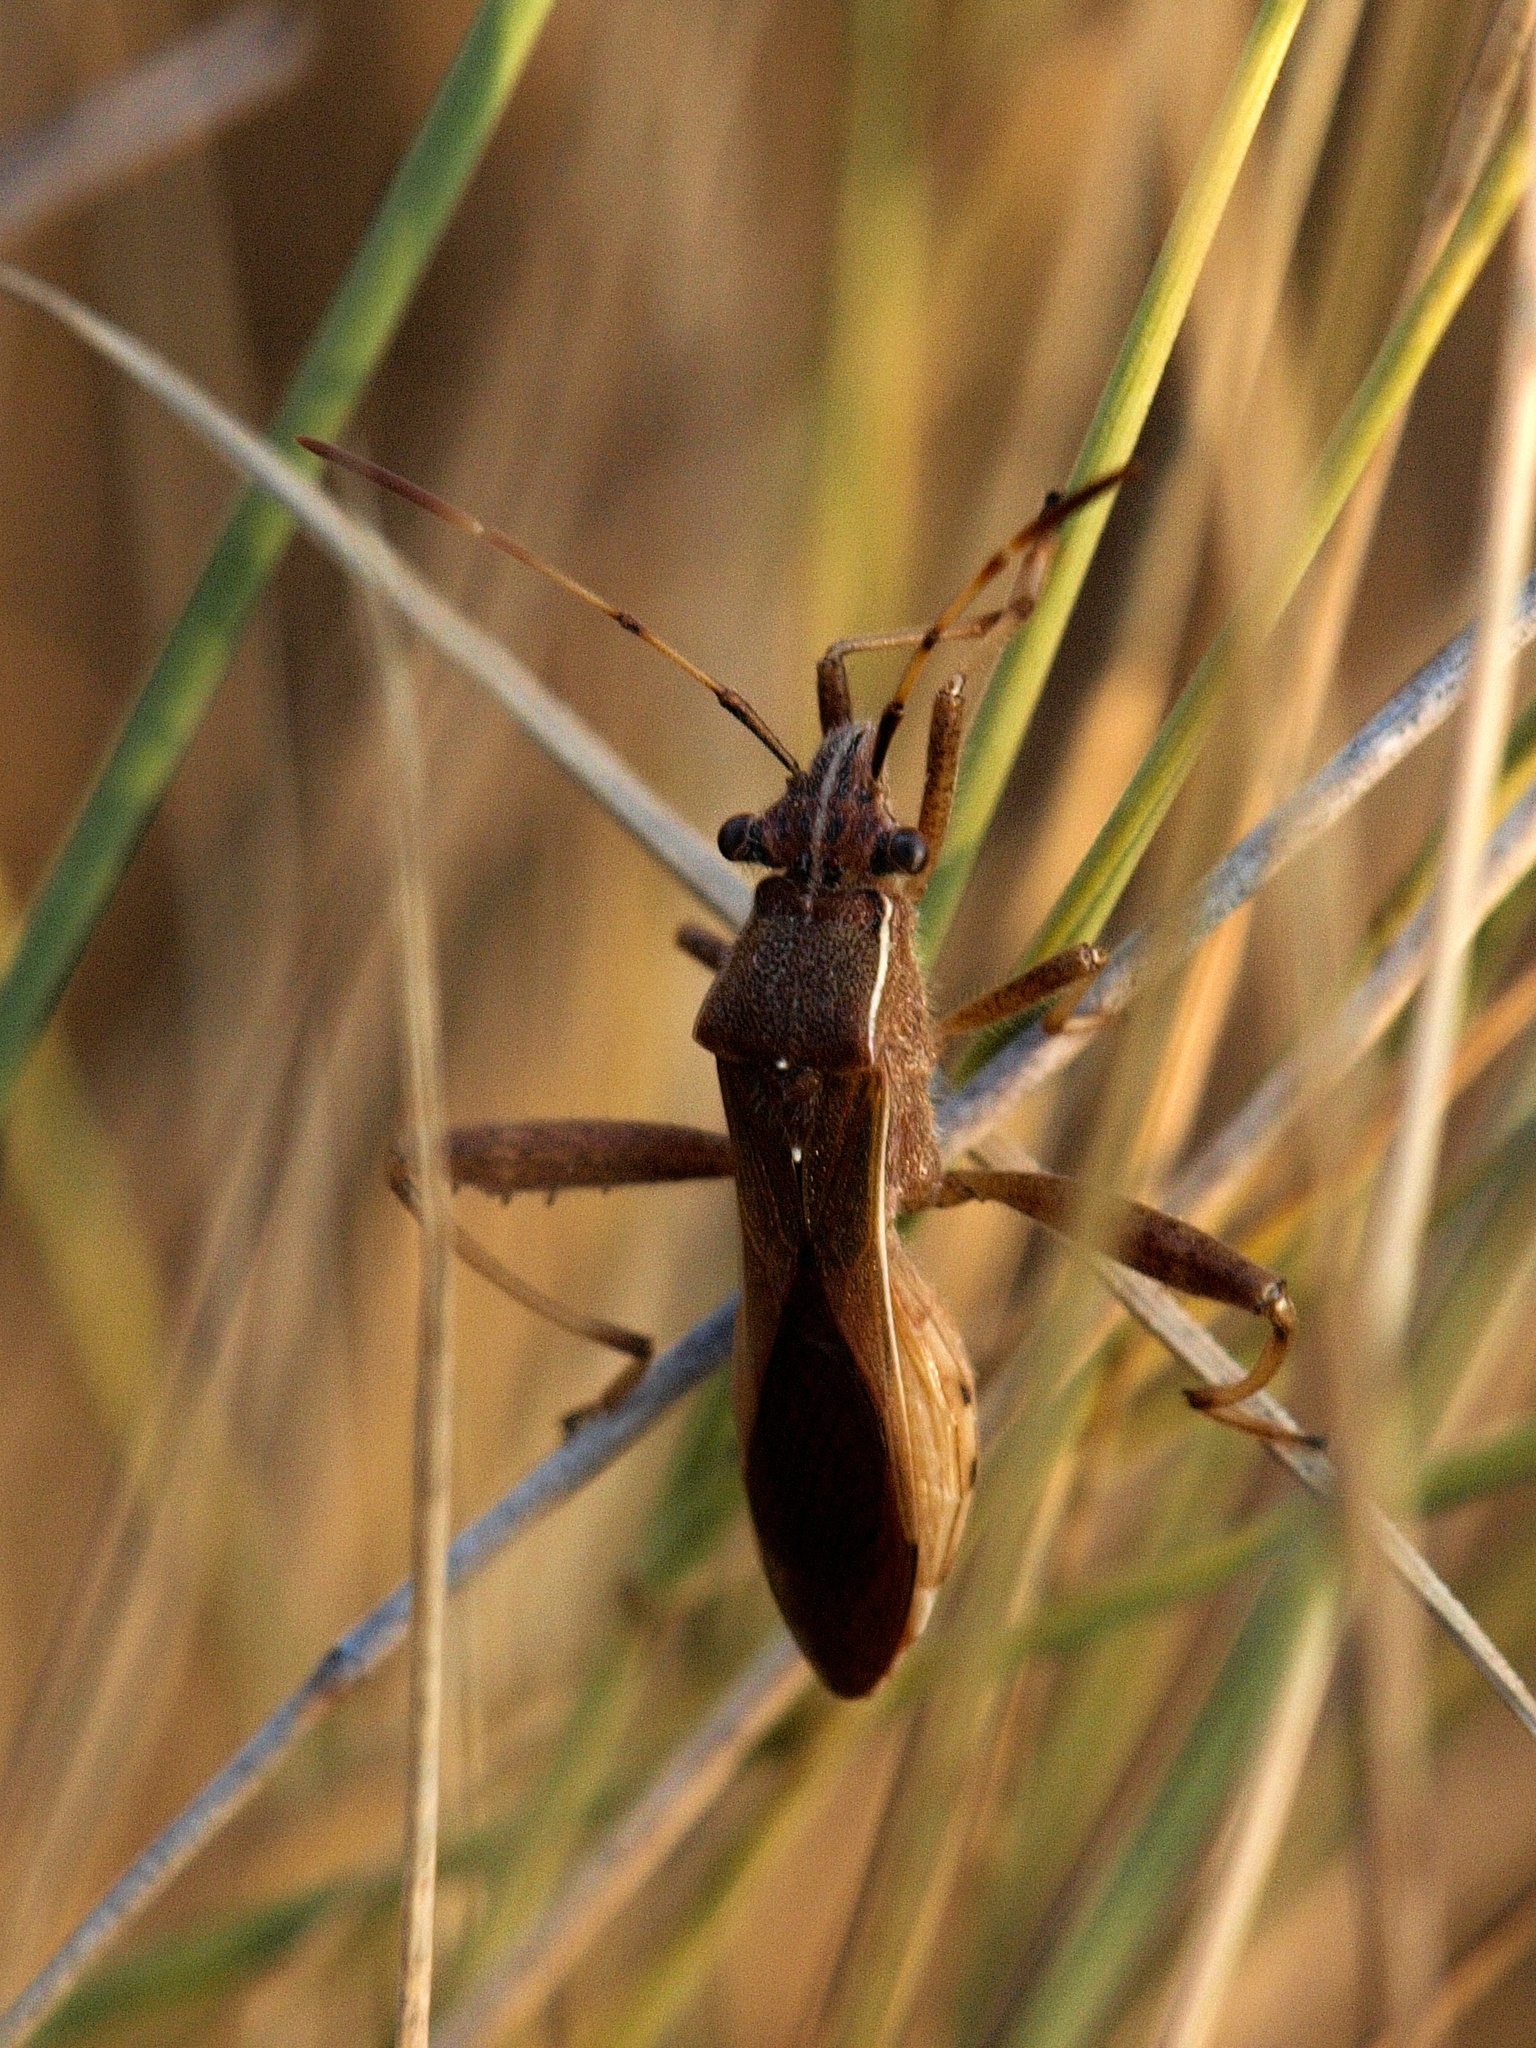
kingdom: Animalia
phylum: Arthropoda
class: Insecta
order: Hemiptera
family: Alydidae
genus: Camptopus
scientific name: Camptopus lateralis
